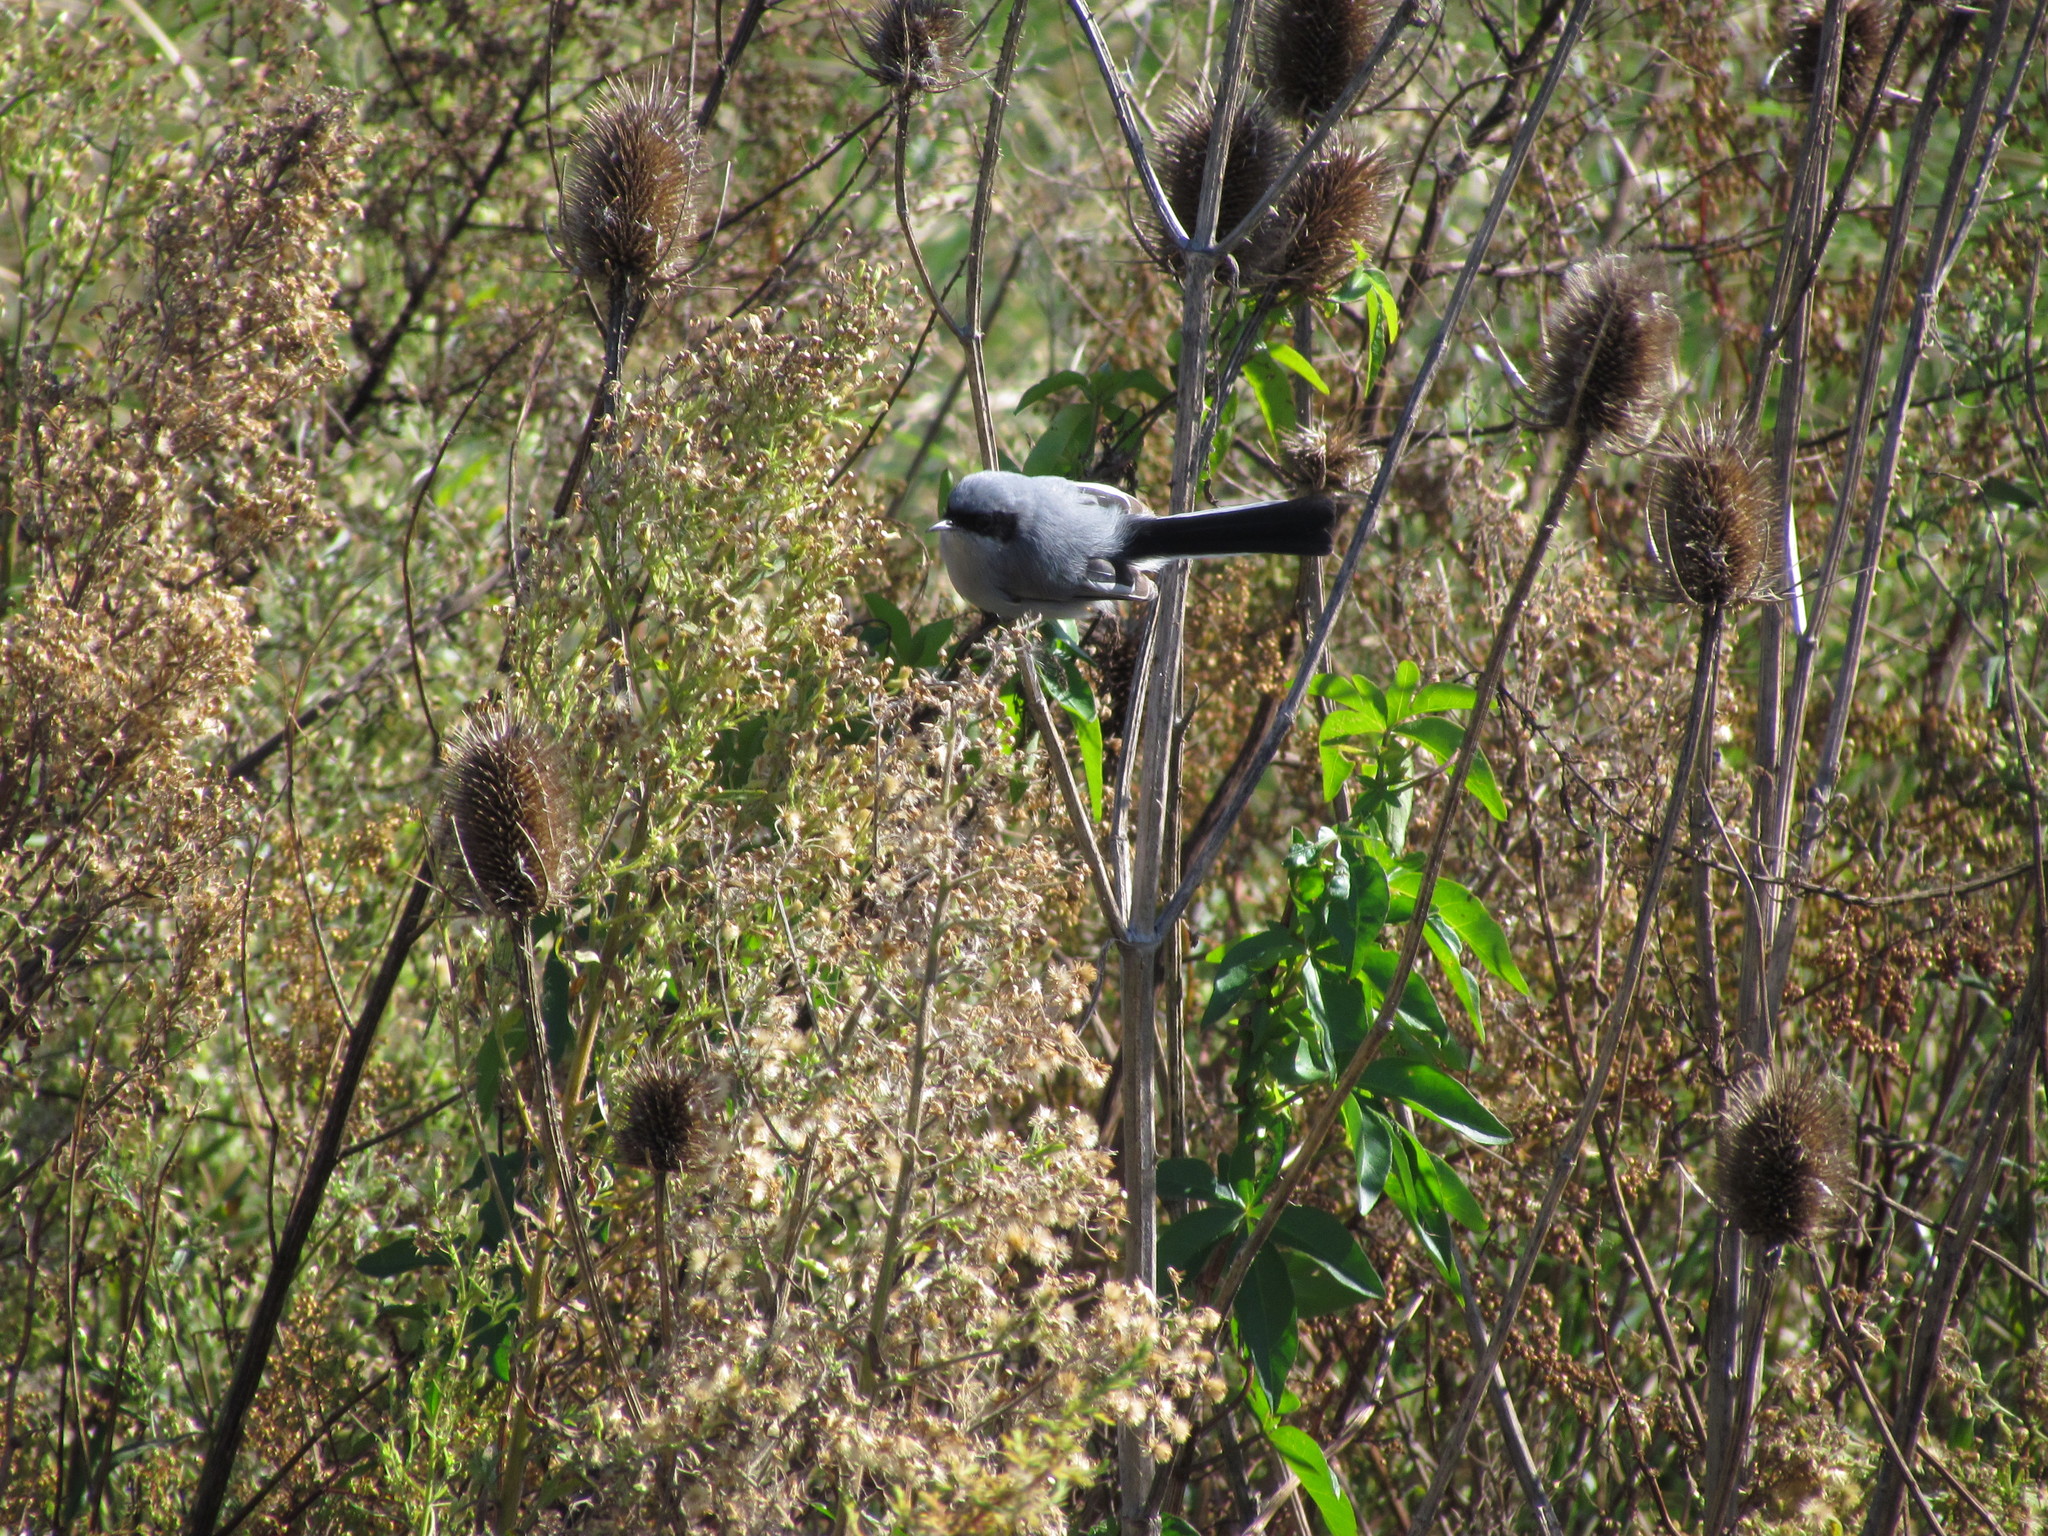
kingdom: Animalia
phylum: Chordata
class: Aves
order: Passeriformes
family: Polioptilidae
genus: Polioptila
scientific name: Polioptila dumicola
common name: Masked gnatcatcher
